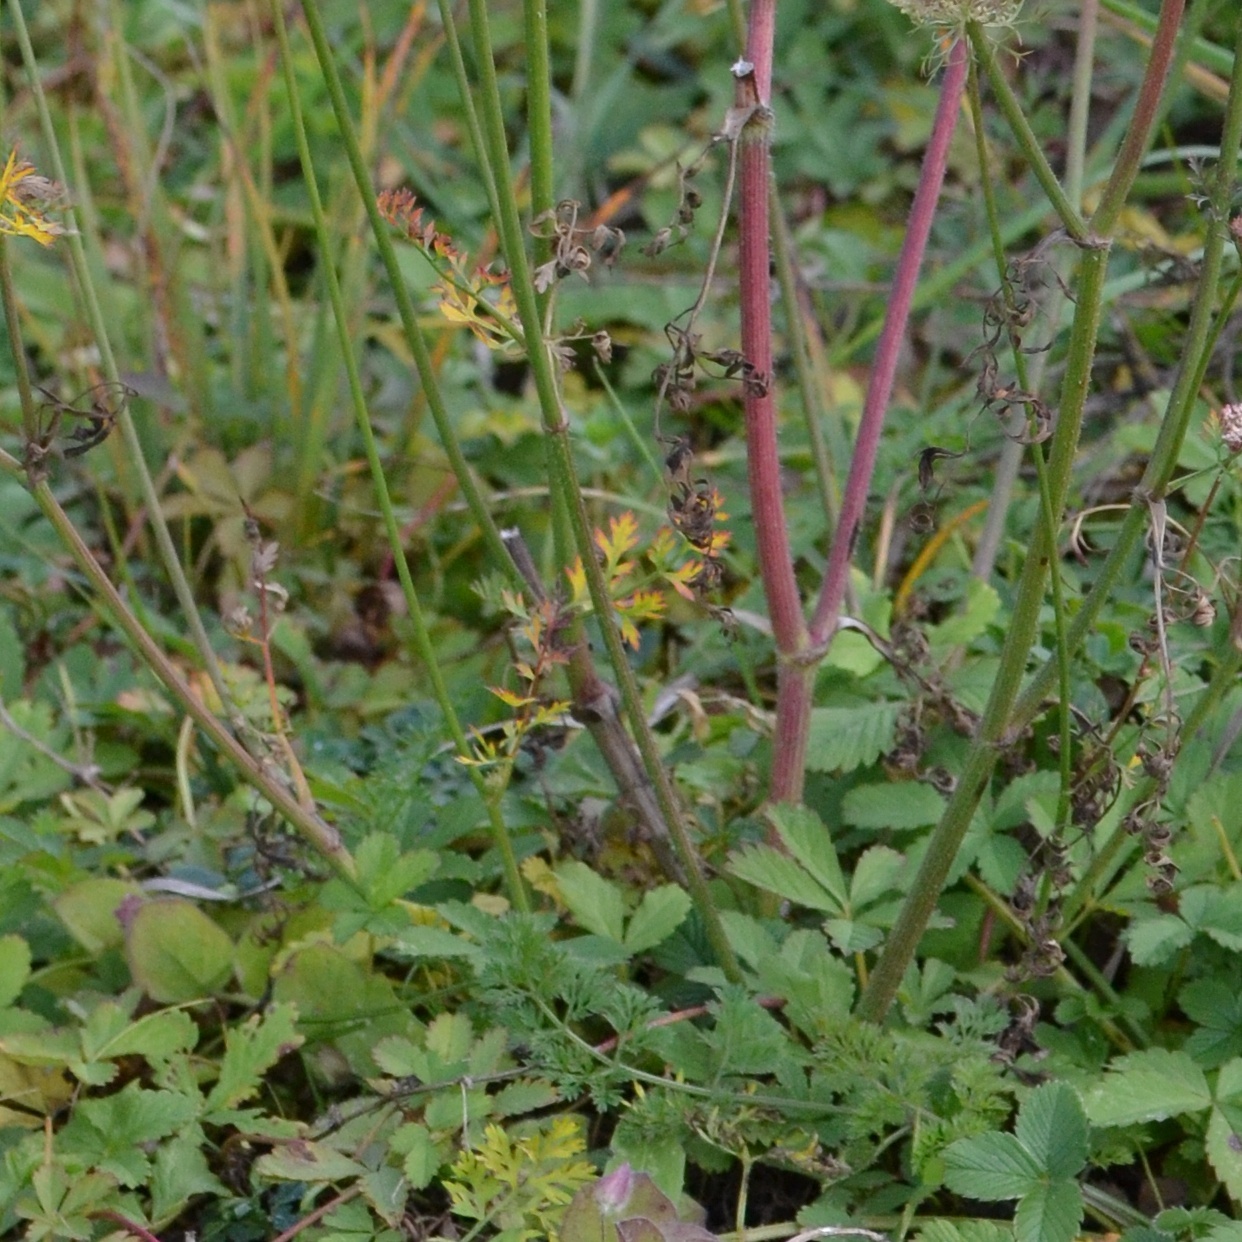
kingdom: Plantae
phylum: Tracheophyta
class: Magnoliopsida
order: Apiales
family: Apiaceae
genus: Daucus
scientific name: Daucus carota
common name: Wild carrot
